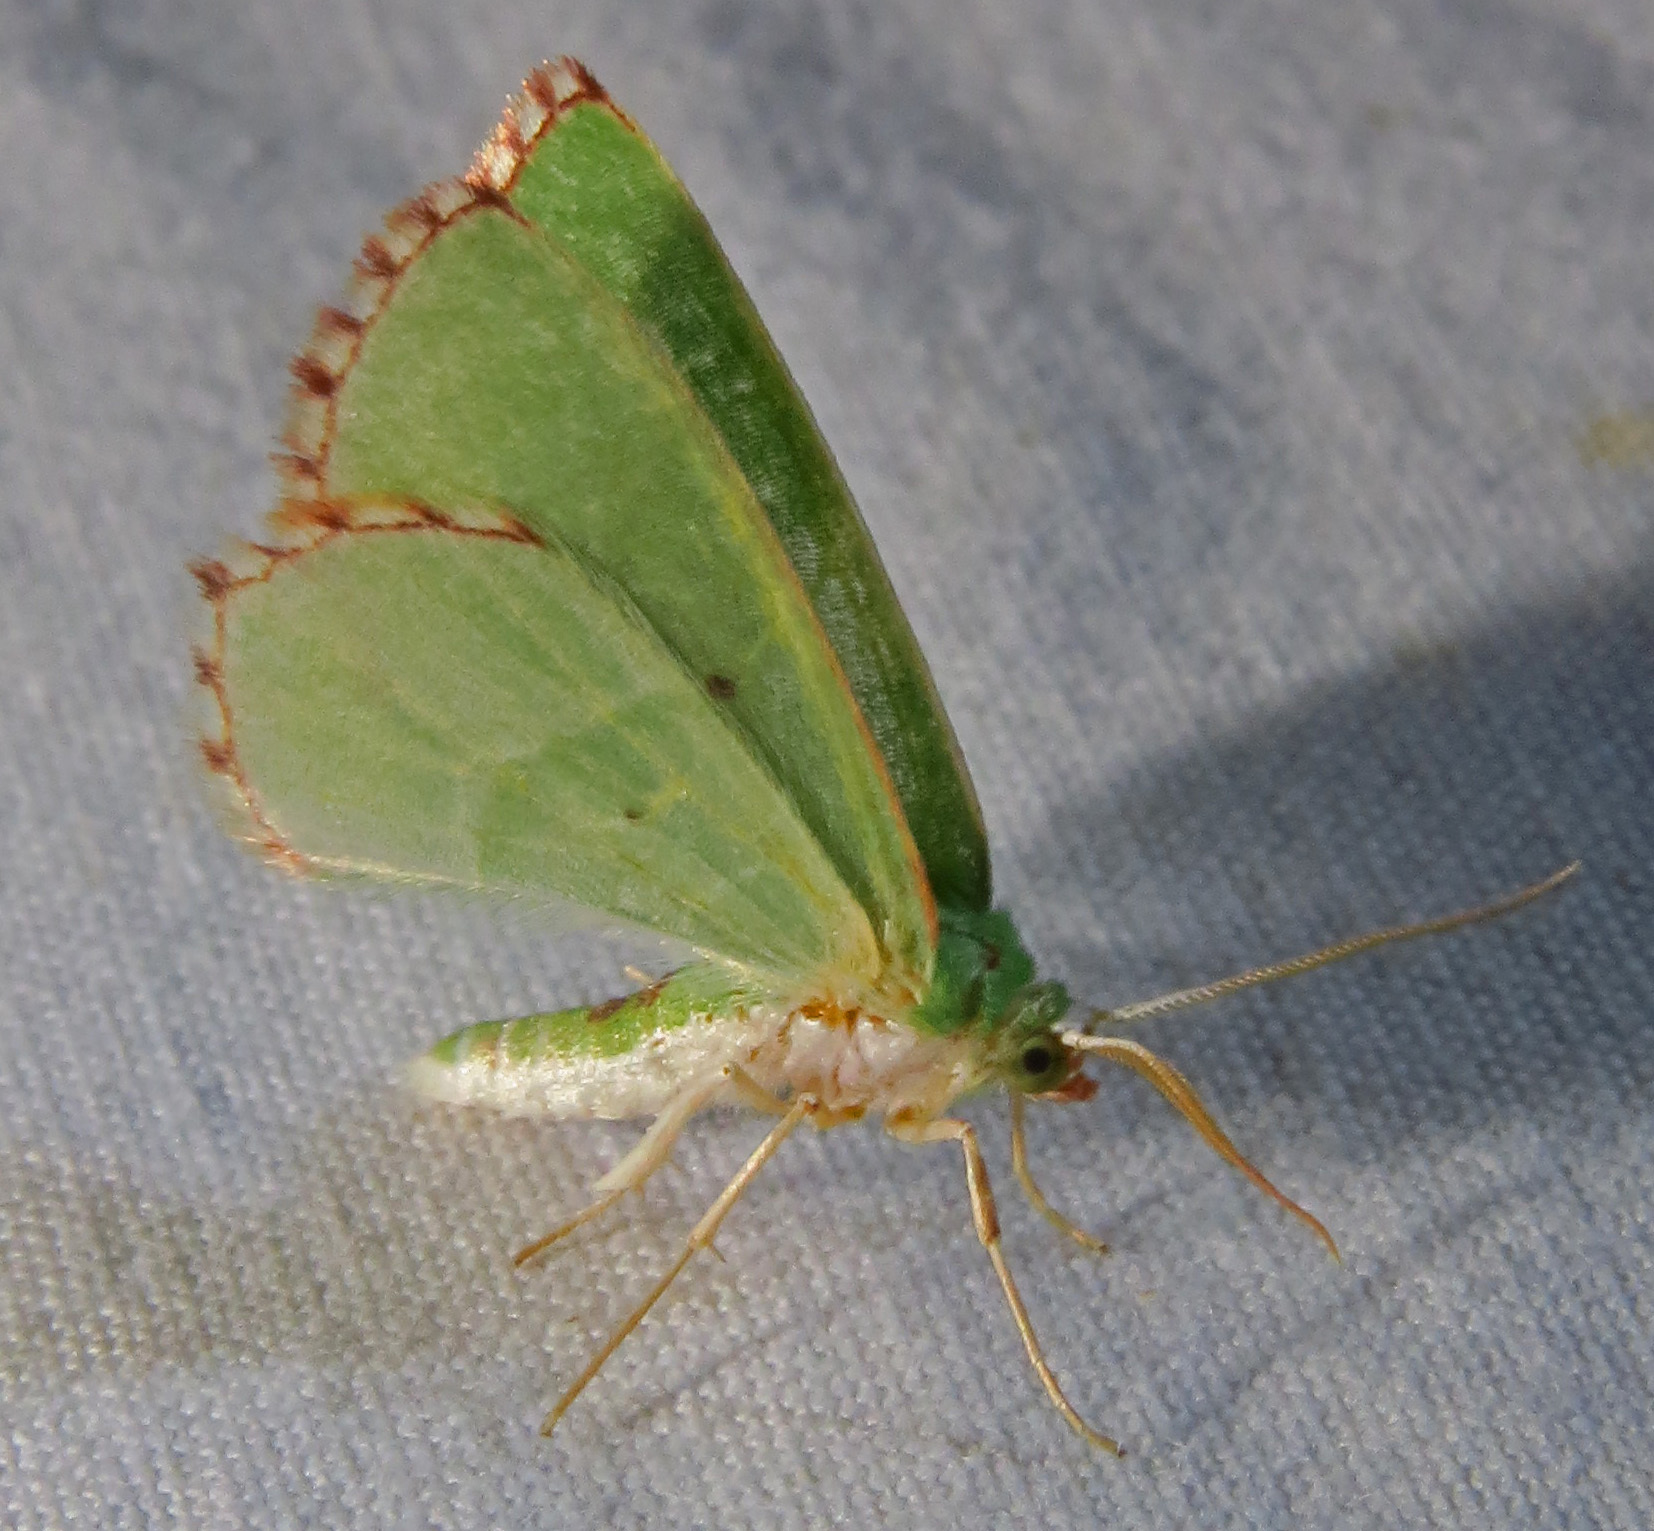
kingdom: Animalia
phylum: Arthropoda
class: Insecta
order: Lepidoptera
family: Geometridae
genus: Nemoria
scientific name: Nemoria lixaria
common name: Red-bordered emerald
